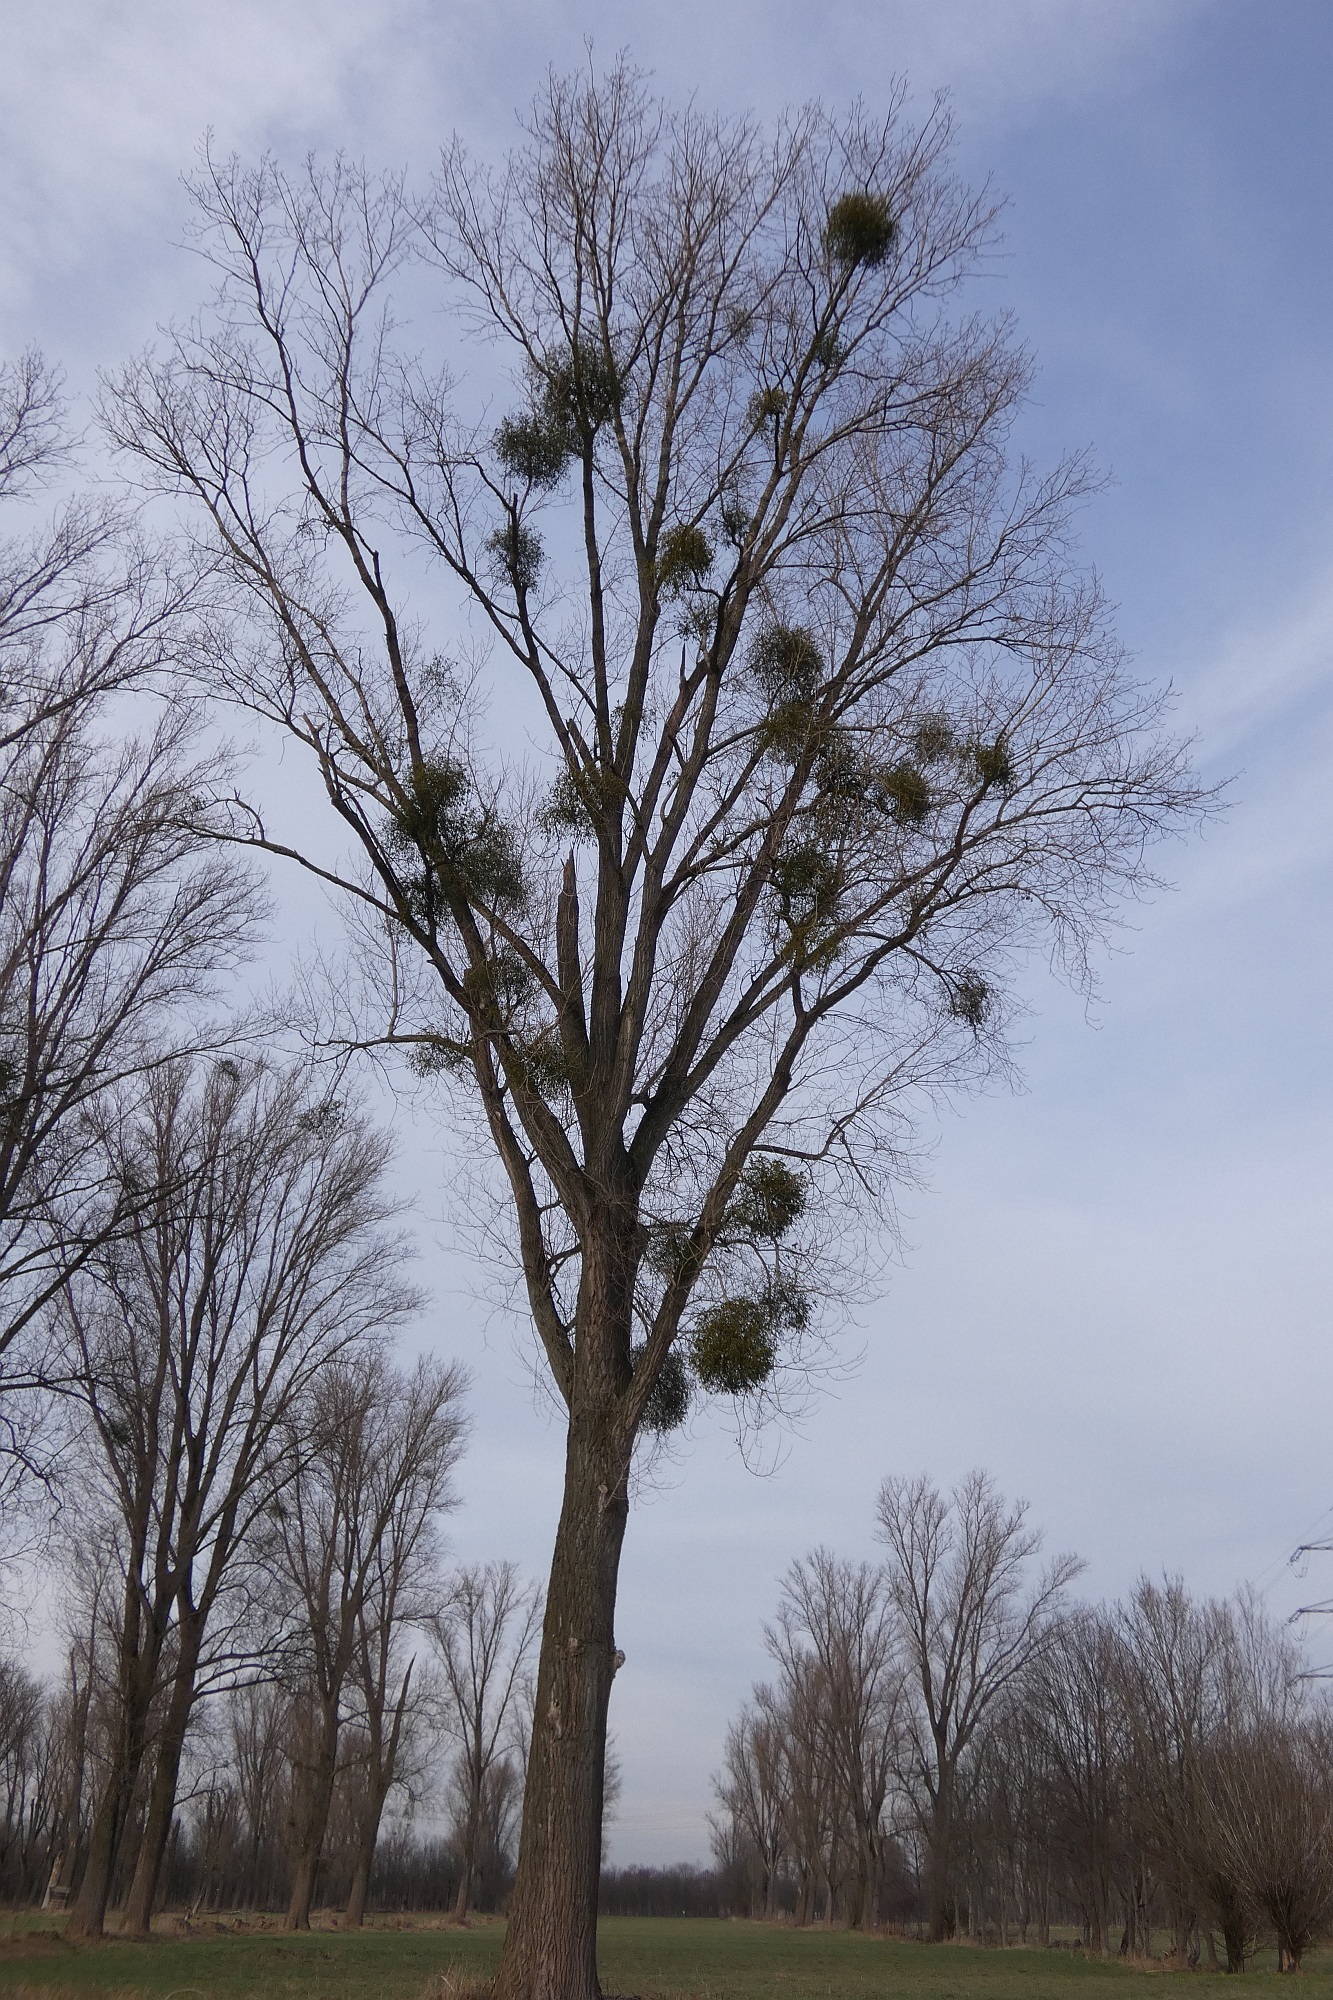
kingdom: Plantae
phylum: Tracheophyta
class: Magnoliopsida
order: Santalales
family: Viscaceae
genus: Viscum
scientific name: Viscum album
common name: Mistletoe
